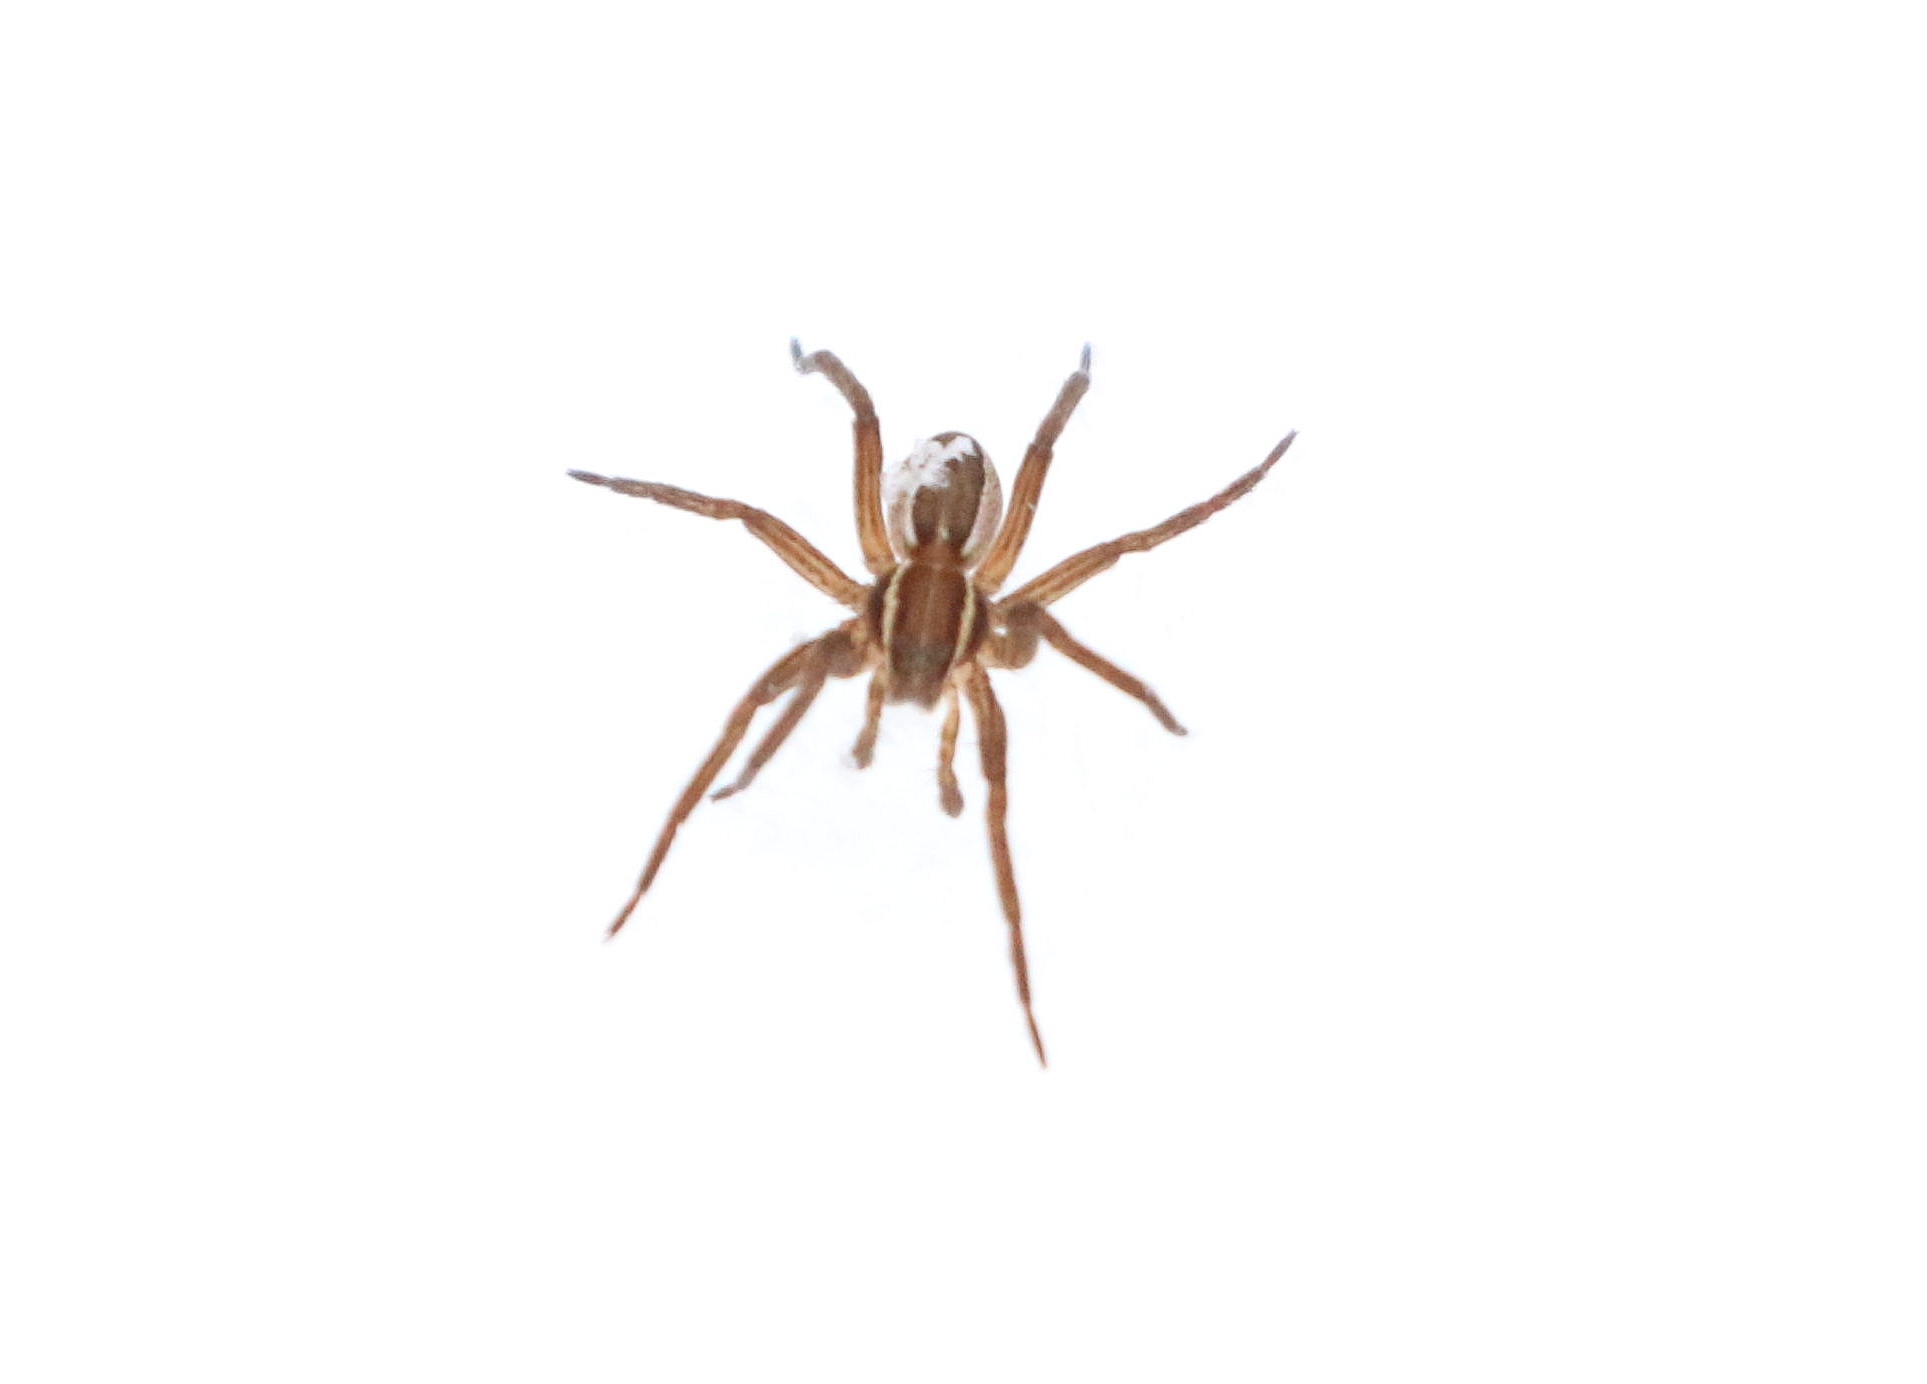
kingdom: Animalia
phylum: Arthropoda
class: Arachnida
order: Araneae
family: Pisauridae
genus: Dolomedes
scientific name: Dolomedes striatus
